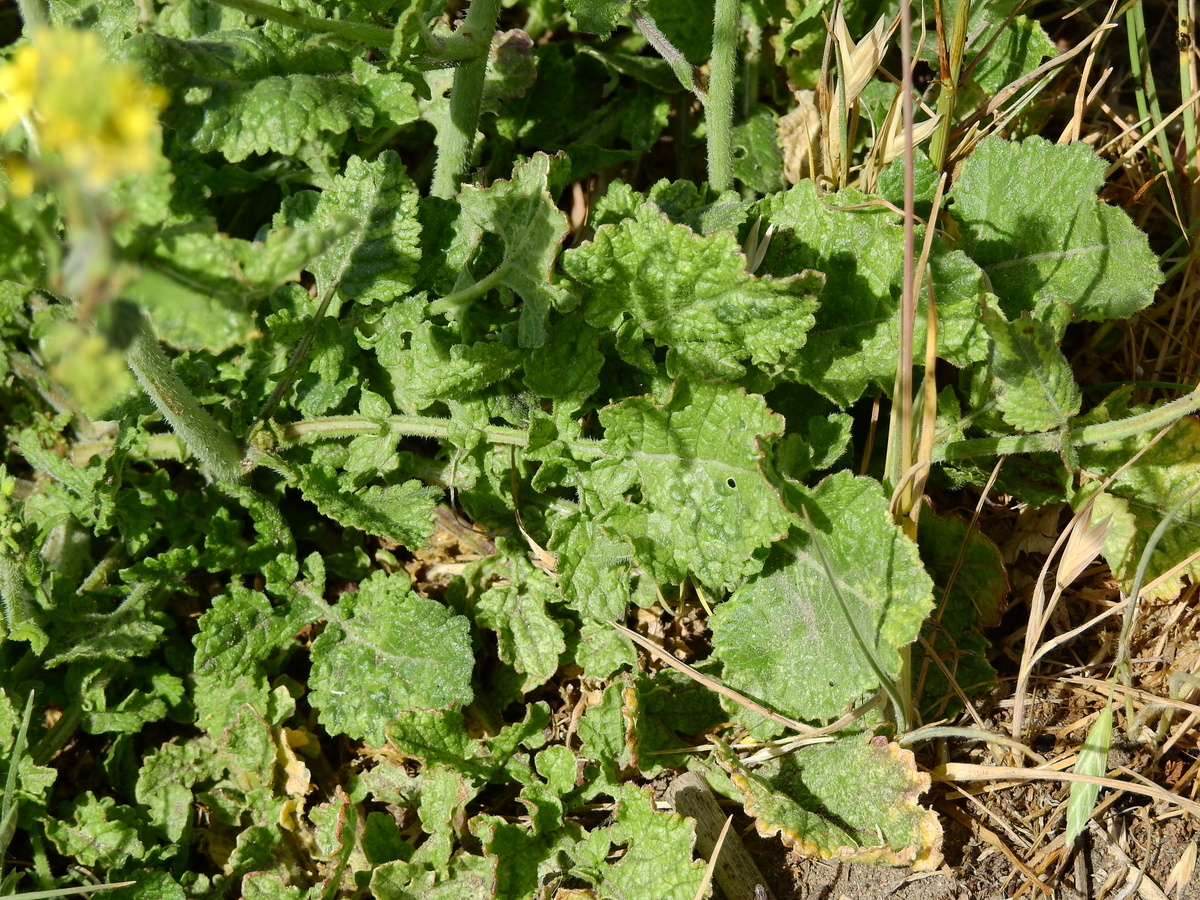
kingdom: Plantae
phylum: Tracheophyta
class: Magnoliopsida
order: Brassicales
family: Brassicaceae
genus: Hirschfeldia
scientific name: Hirschfeldia incana
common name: Hoary mustard
